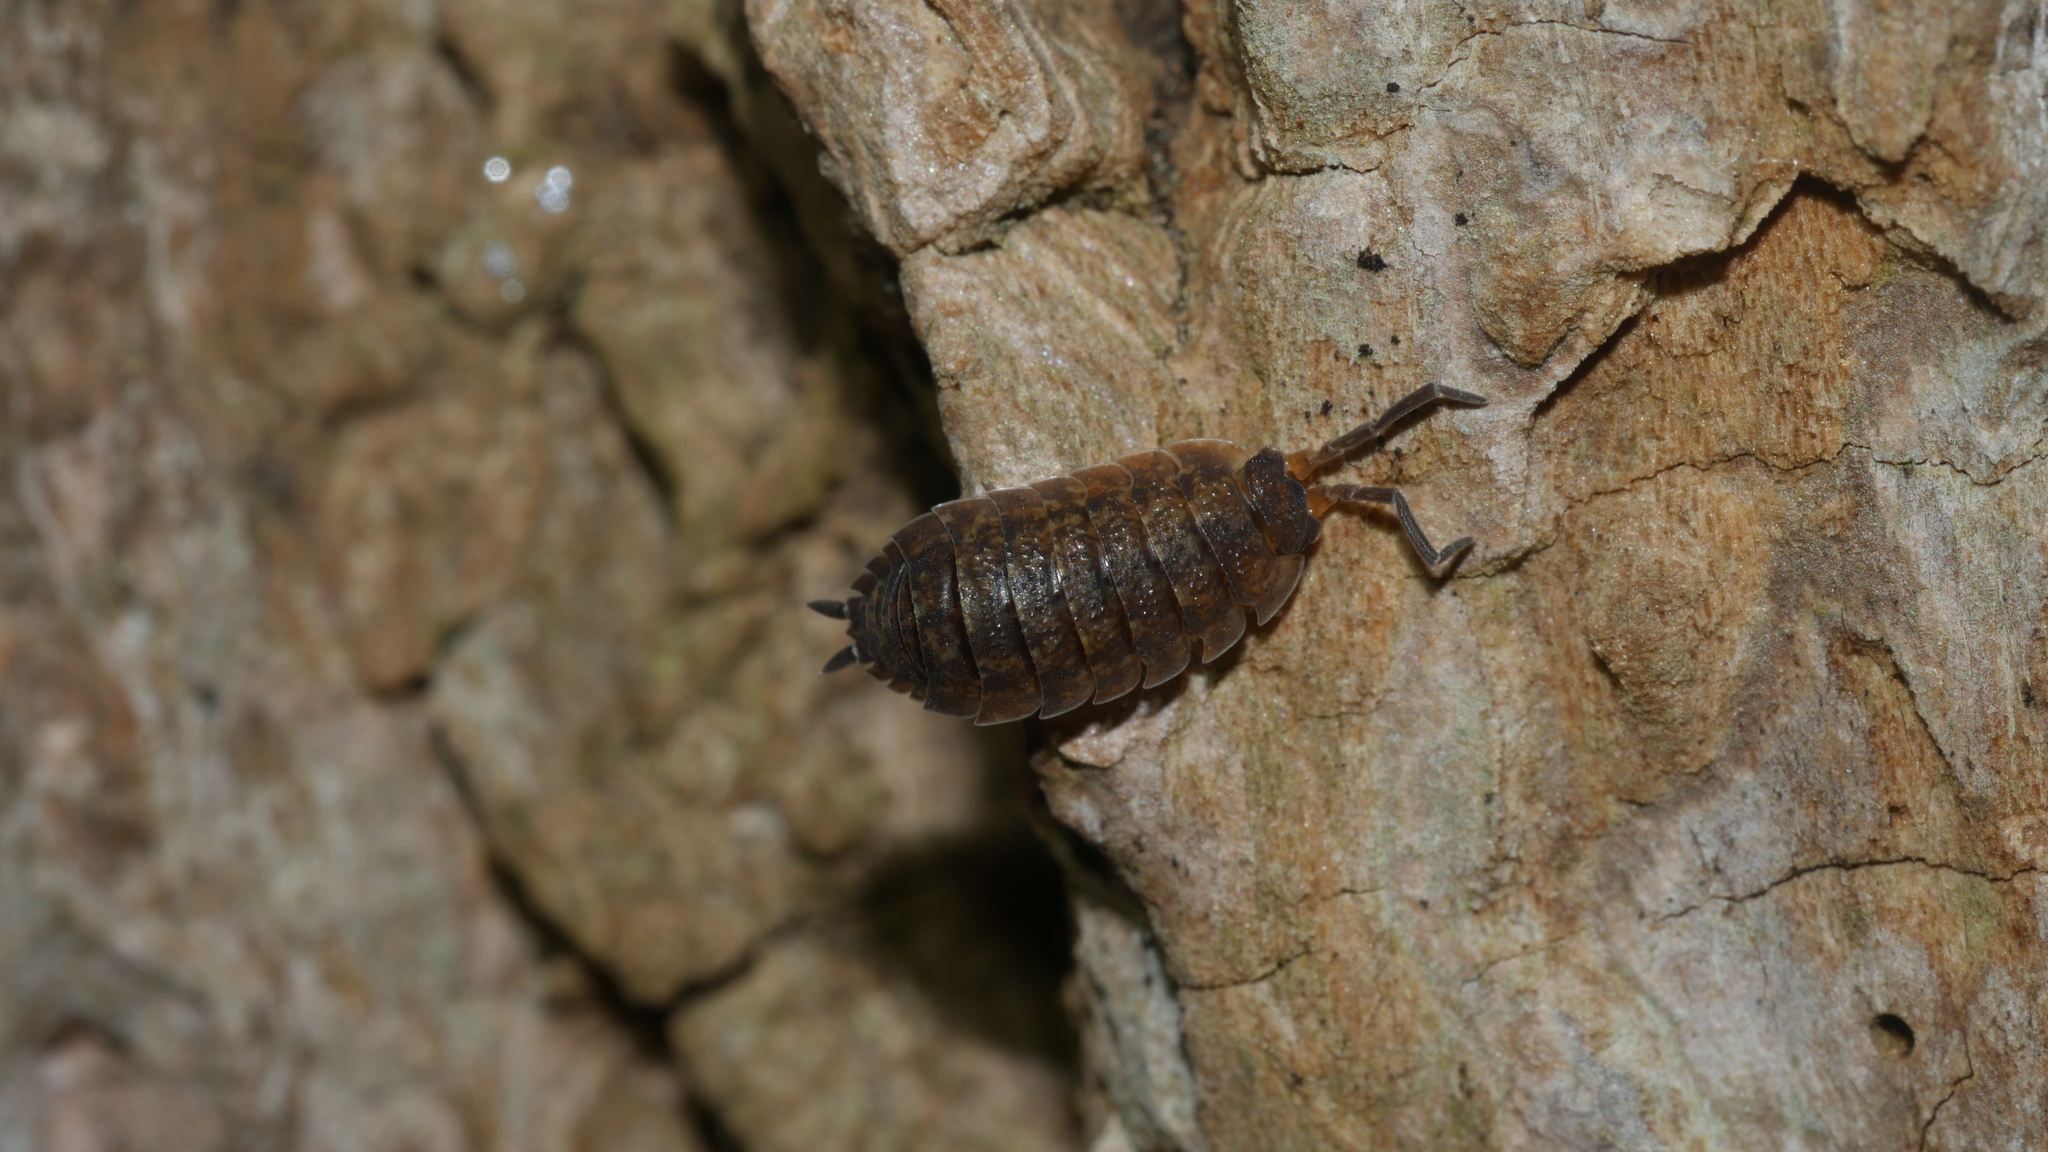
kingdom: Animalia
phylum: Arthropoda
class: Malacostraca
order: Isopoda
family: Porcellionidae
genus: Porcellio
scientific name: Porcellio scaber
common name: Common rough woodlouse
